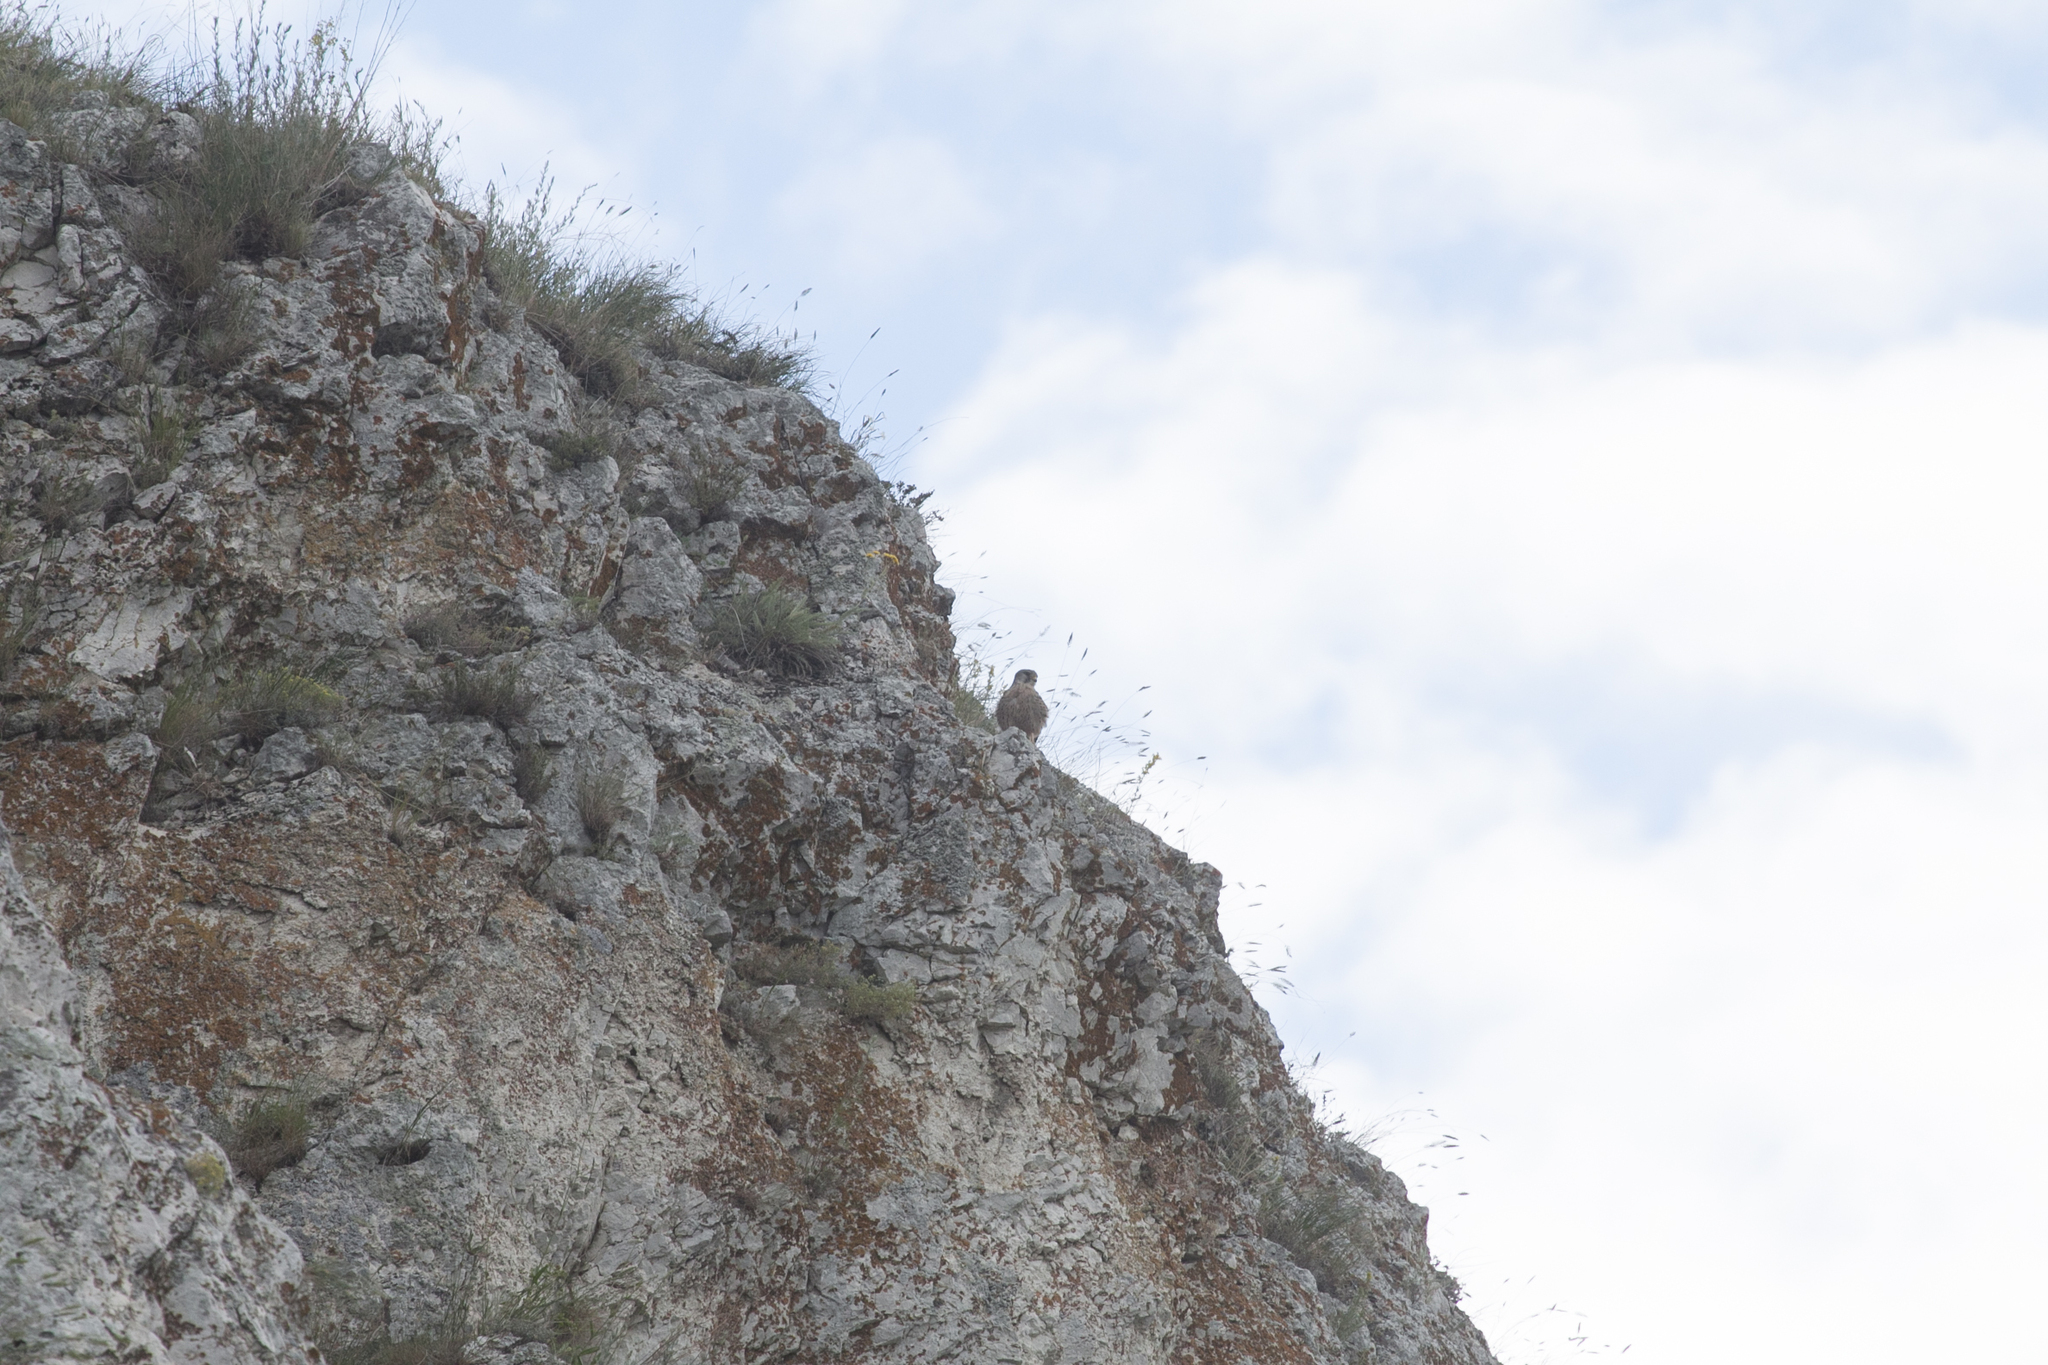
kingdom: Animalia
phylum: Chordata
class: Aves
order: Falconiformes
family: Falconidae
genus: Falco
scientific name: Falco tinnunculus
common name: Common kestrel
